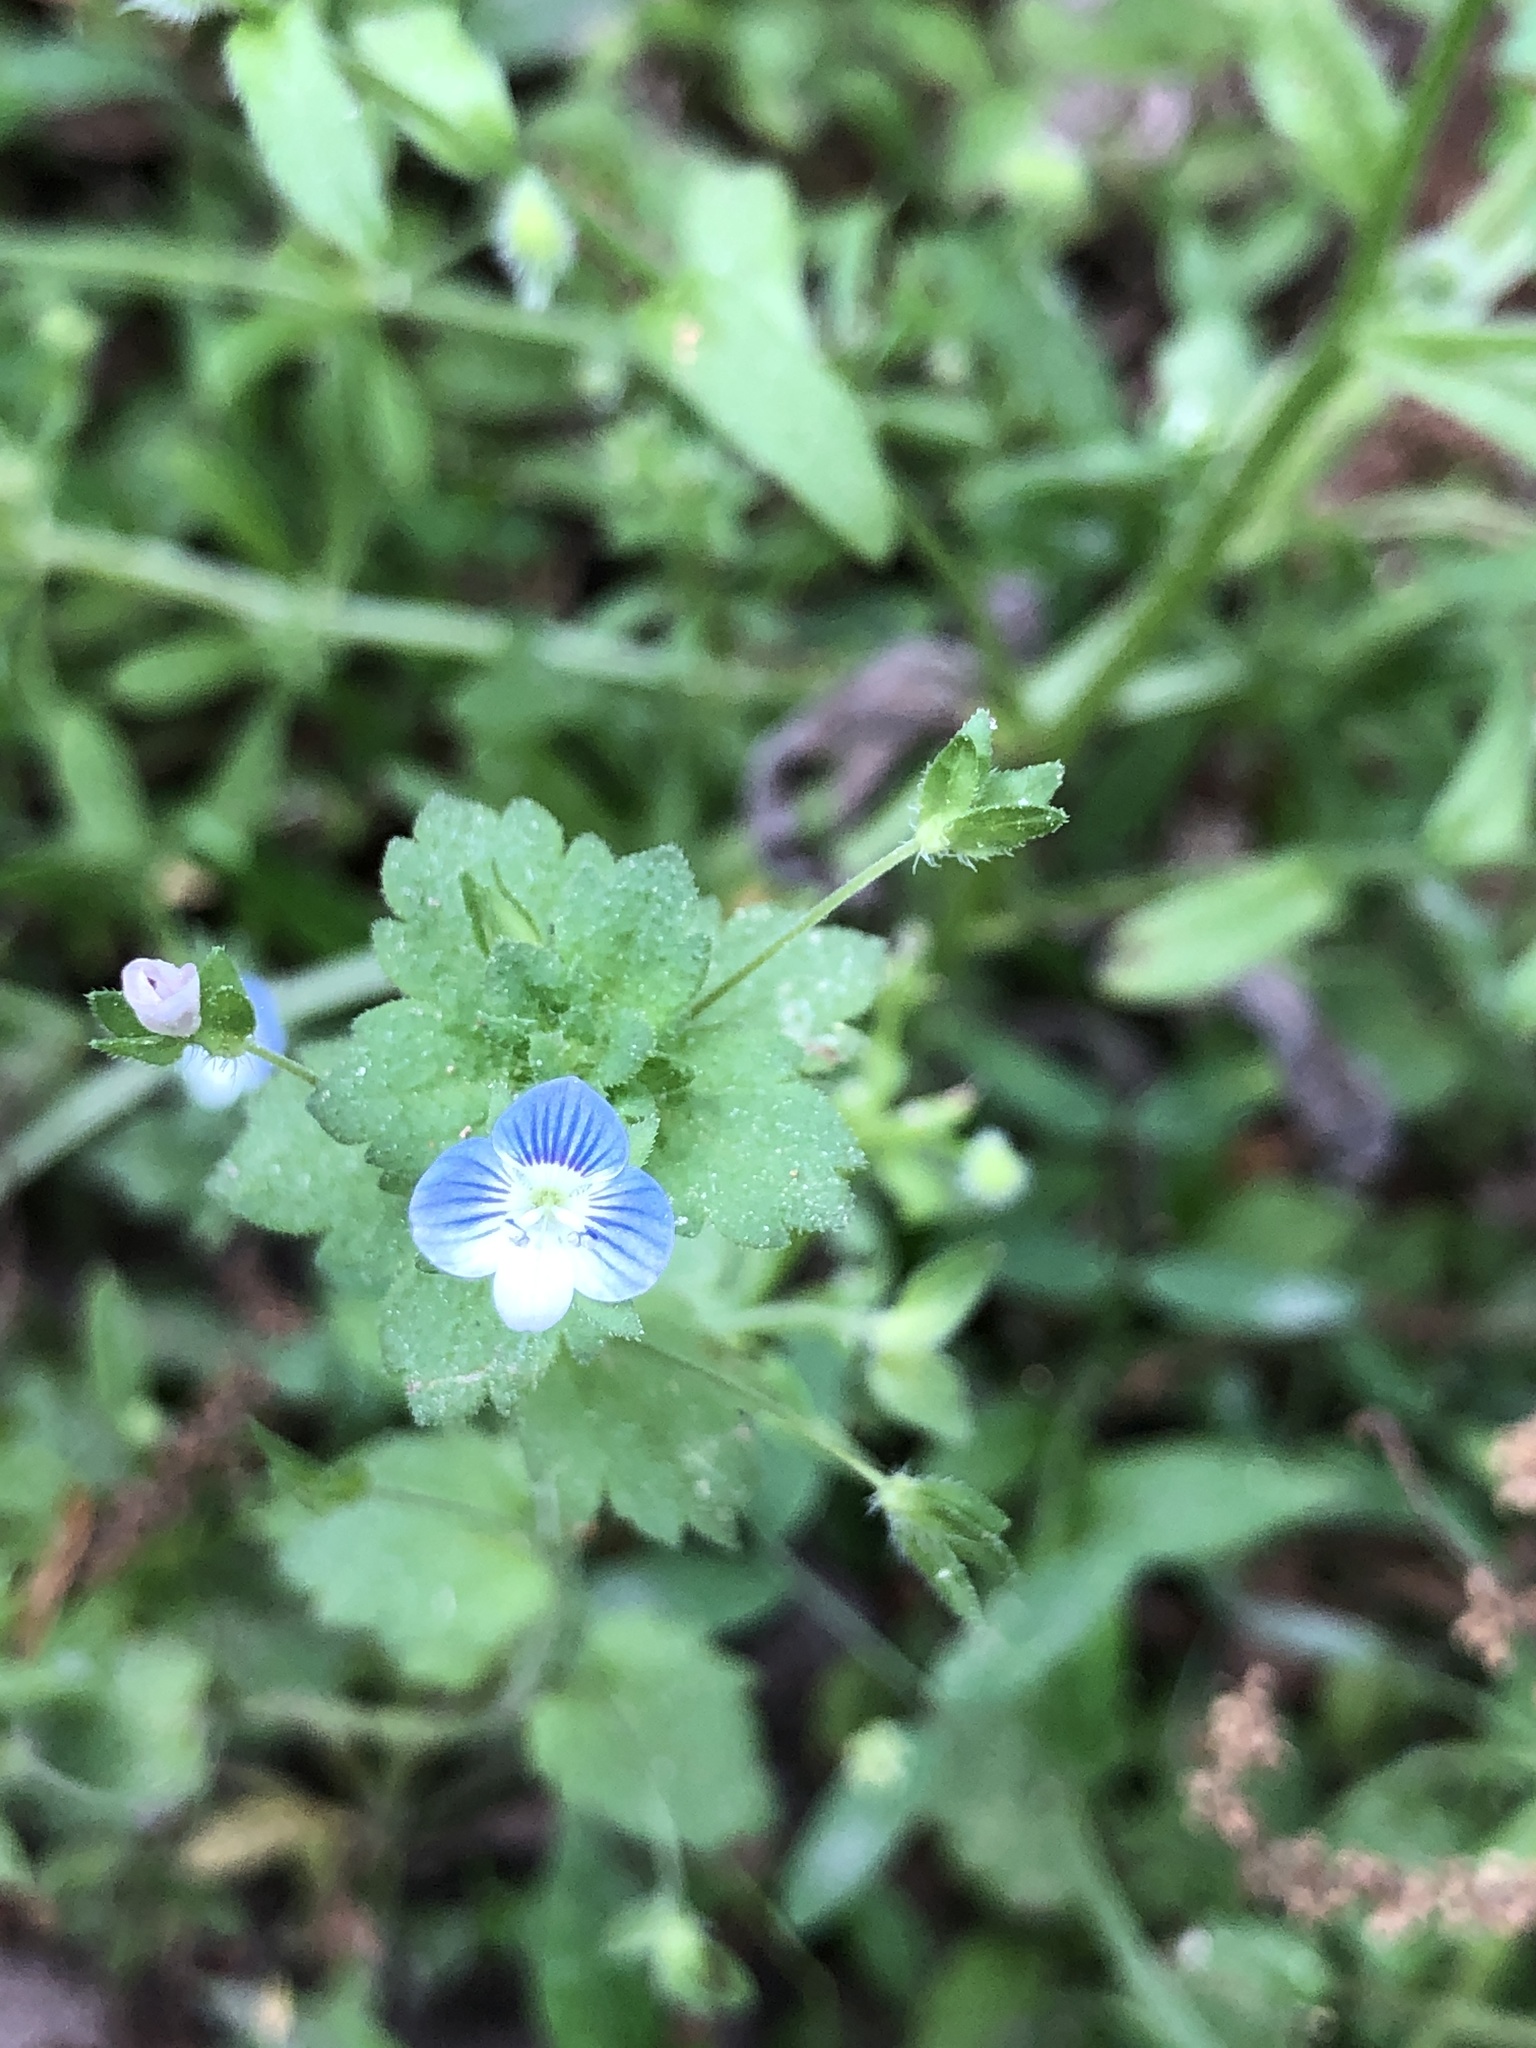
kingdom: Plantae
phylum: Tracheophyta
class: Magnoliopsida
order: Lamiales
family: Plantaginaceae
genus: Veronica
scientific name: Veronica persica
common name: Common field-speedwell
